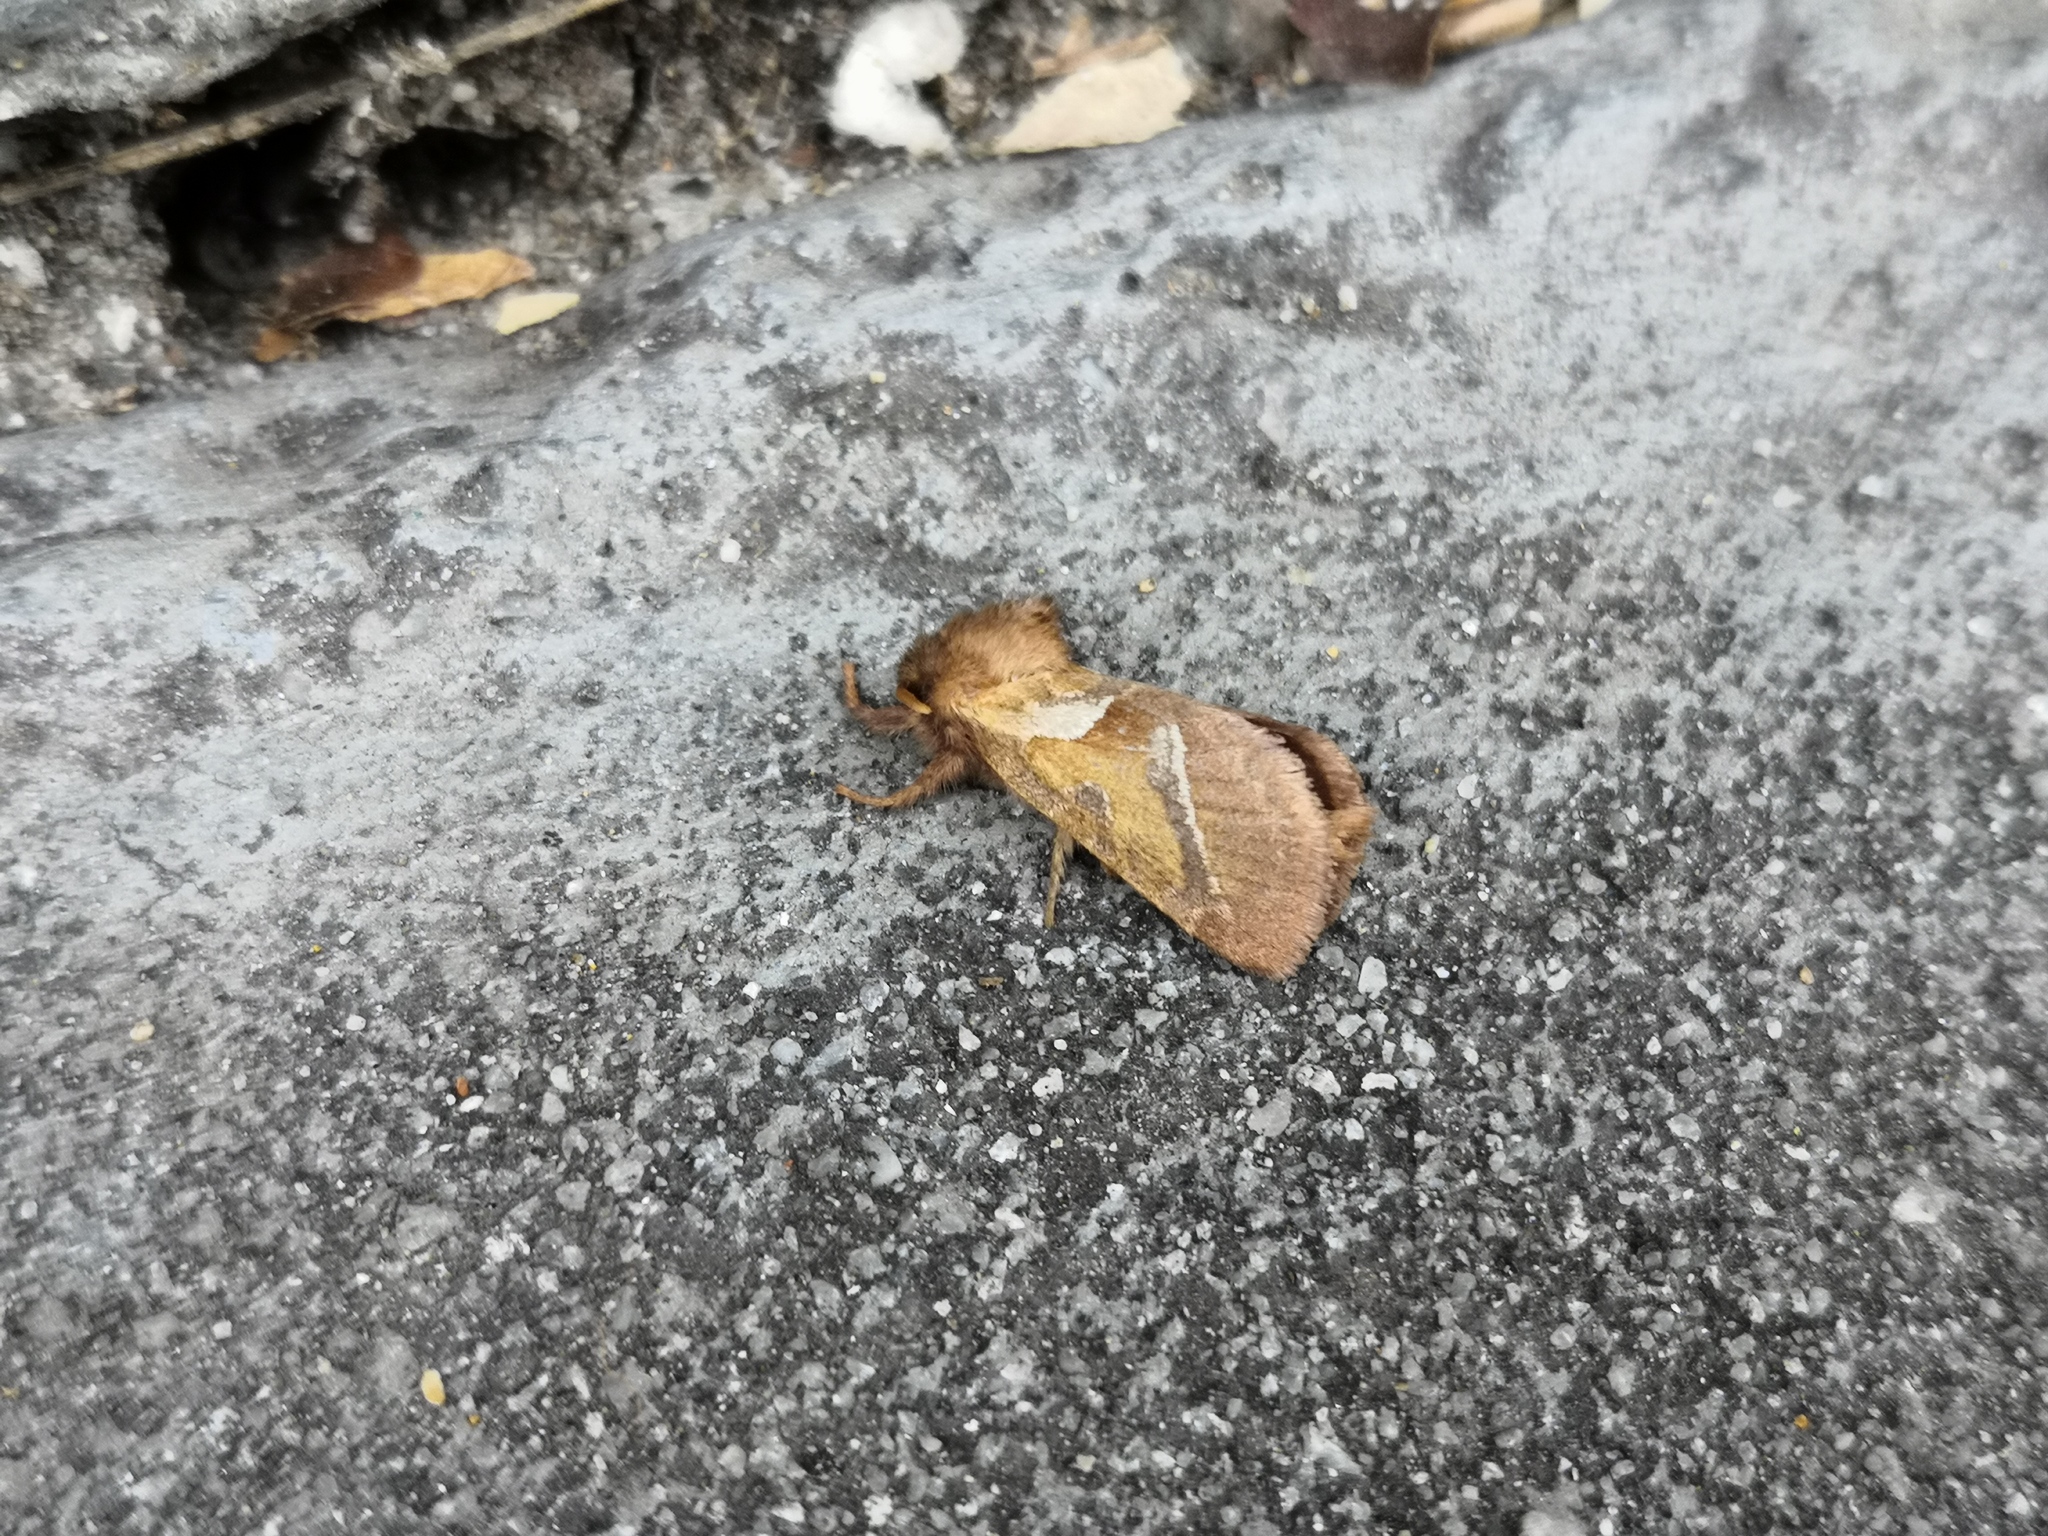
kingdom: Animalia
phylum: Arthropoda
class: Insecta
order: Lepidoptera
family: Hepialidae
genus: Triodia
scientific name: Triodia sylvina
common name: Orange swift
